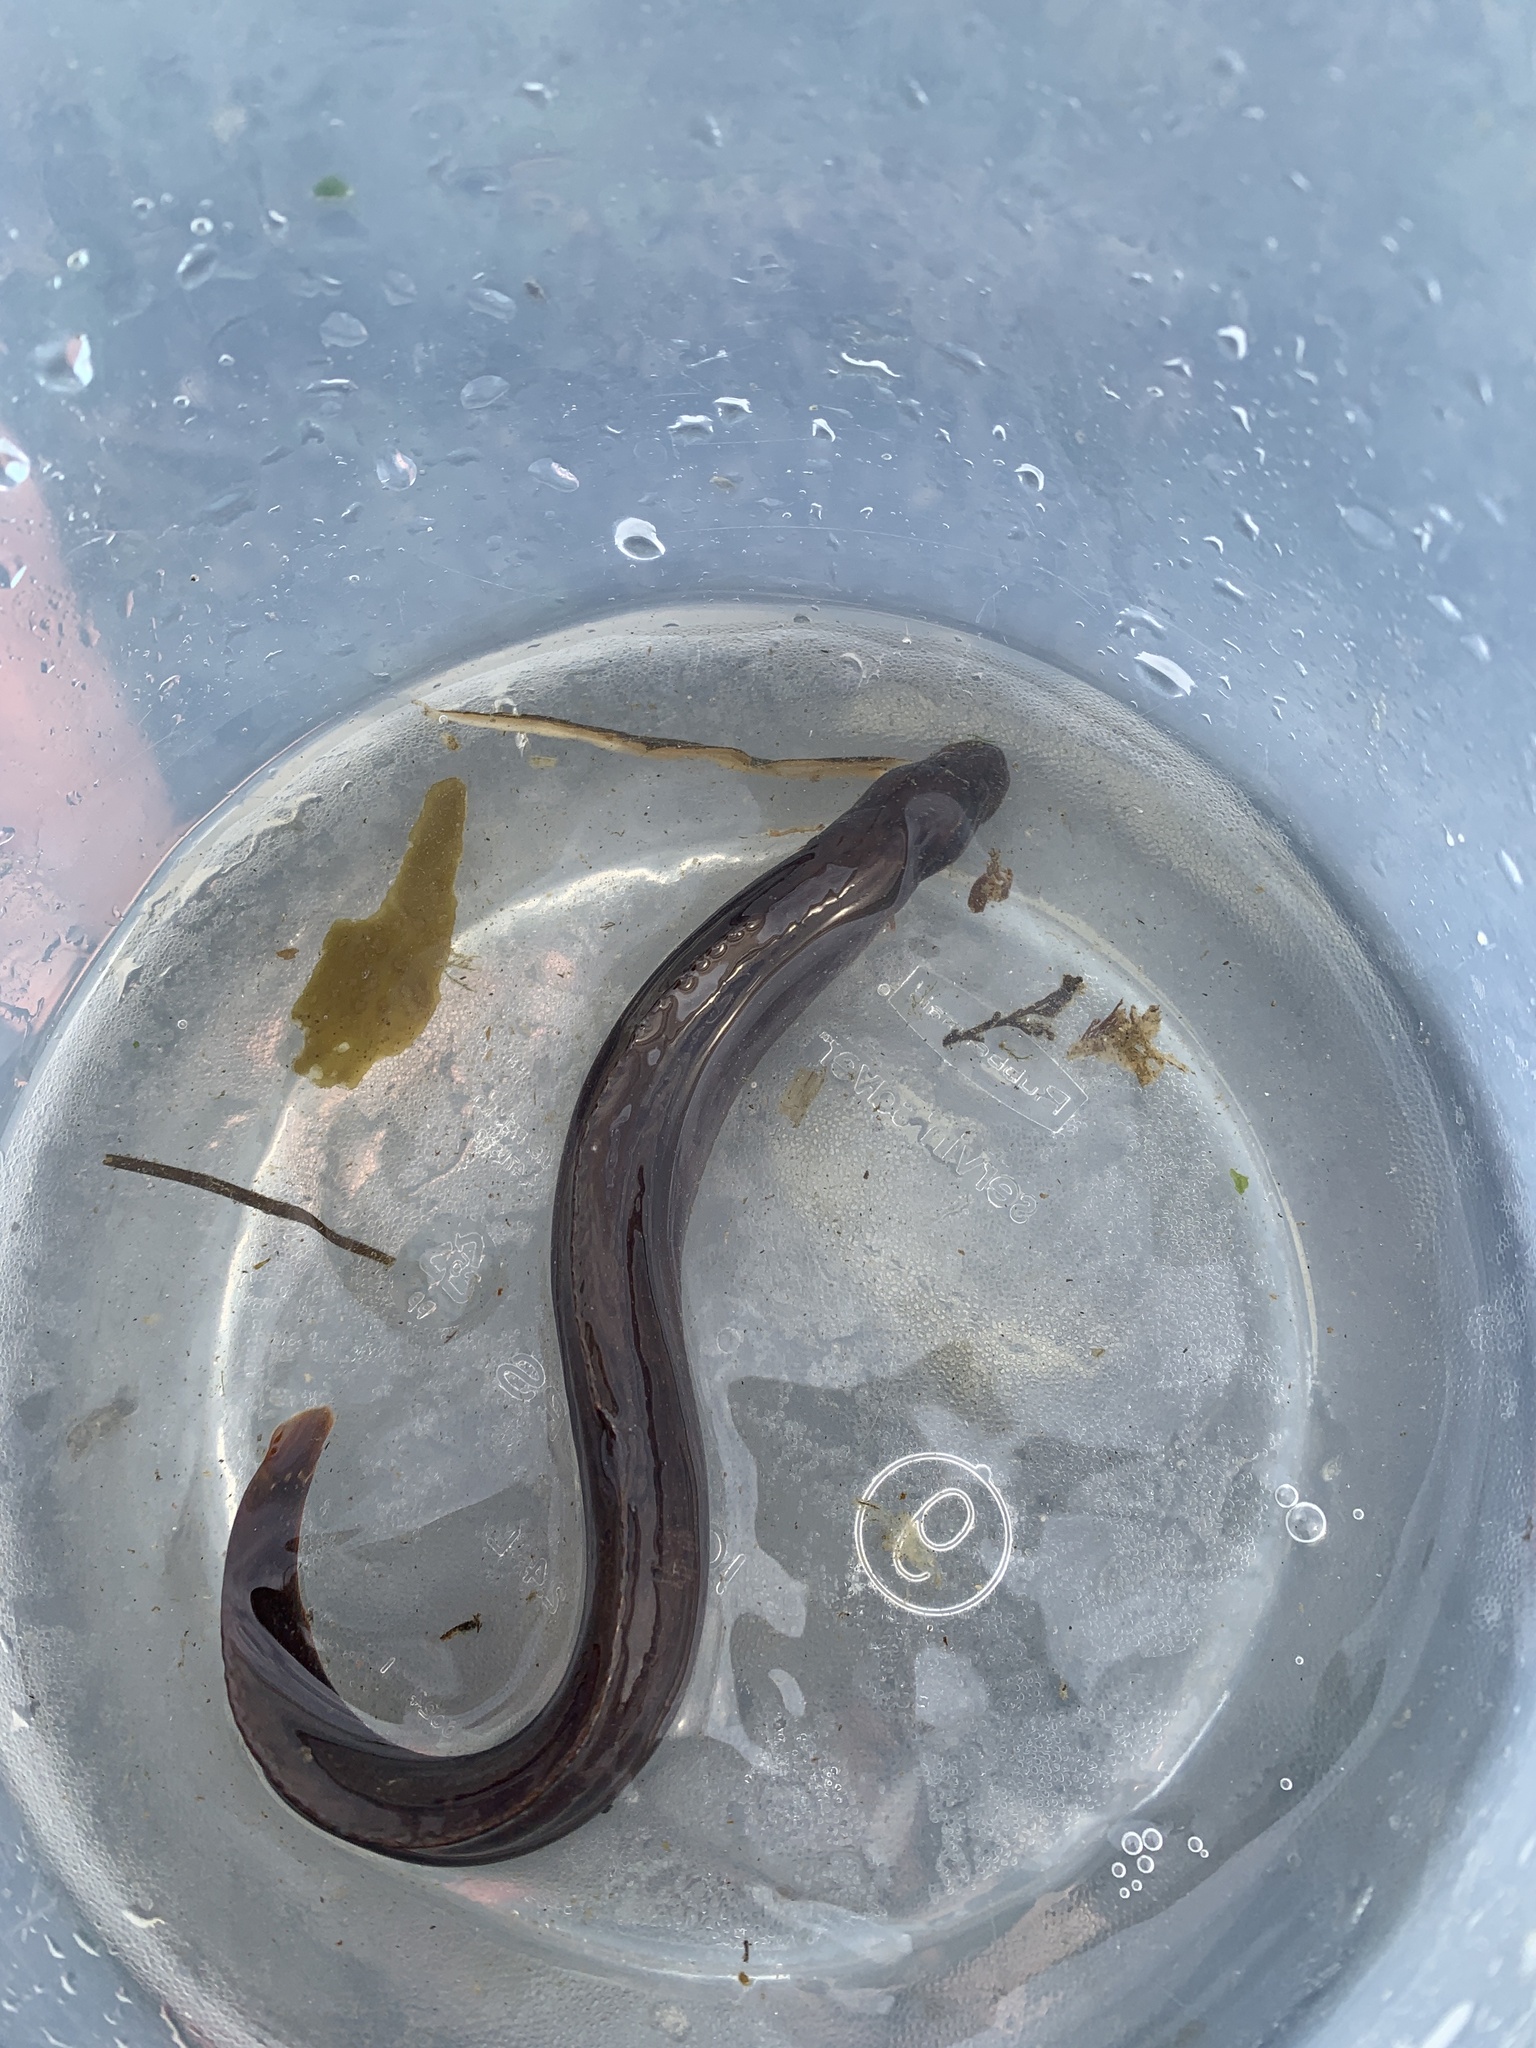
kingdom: Animalia
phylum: Chordata
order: Perciformes
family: Stichaeidae
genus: Xiphister
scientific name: Xiphister atropurpureus
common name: Black prickleback
